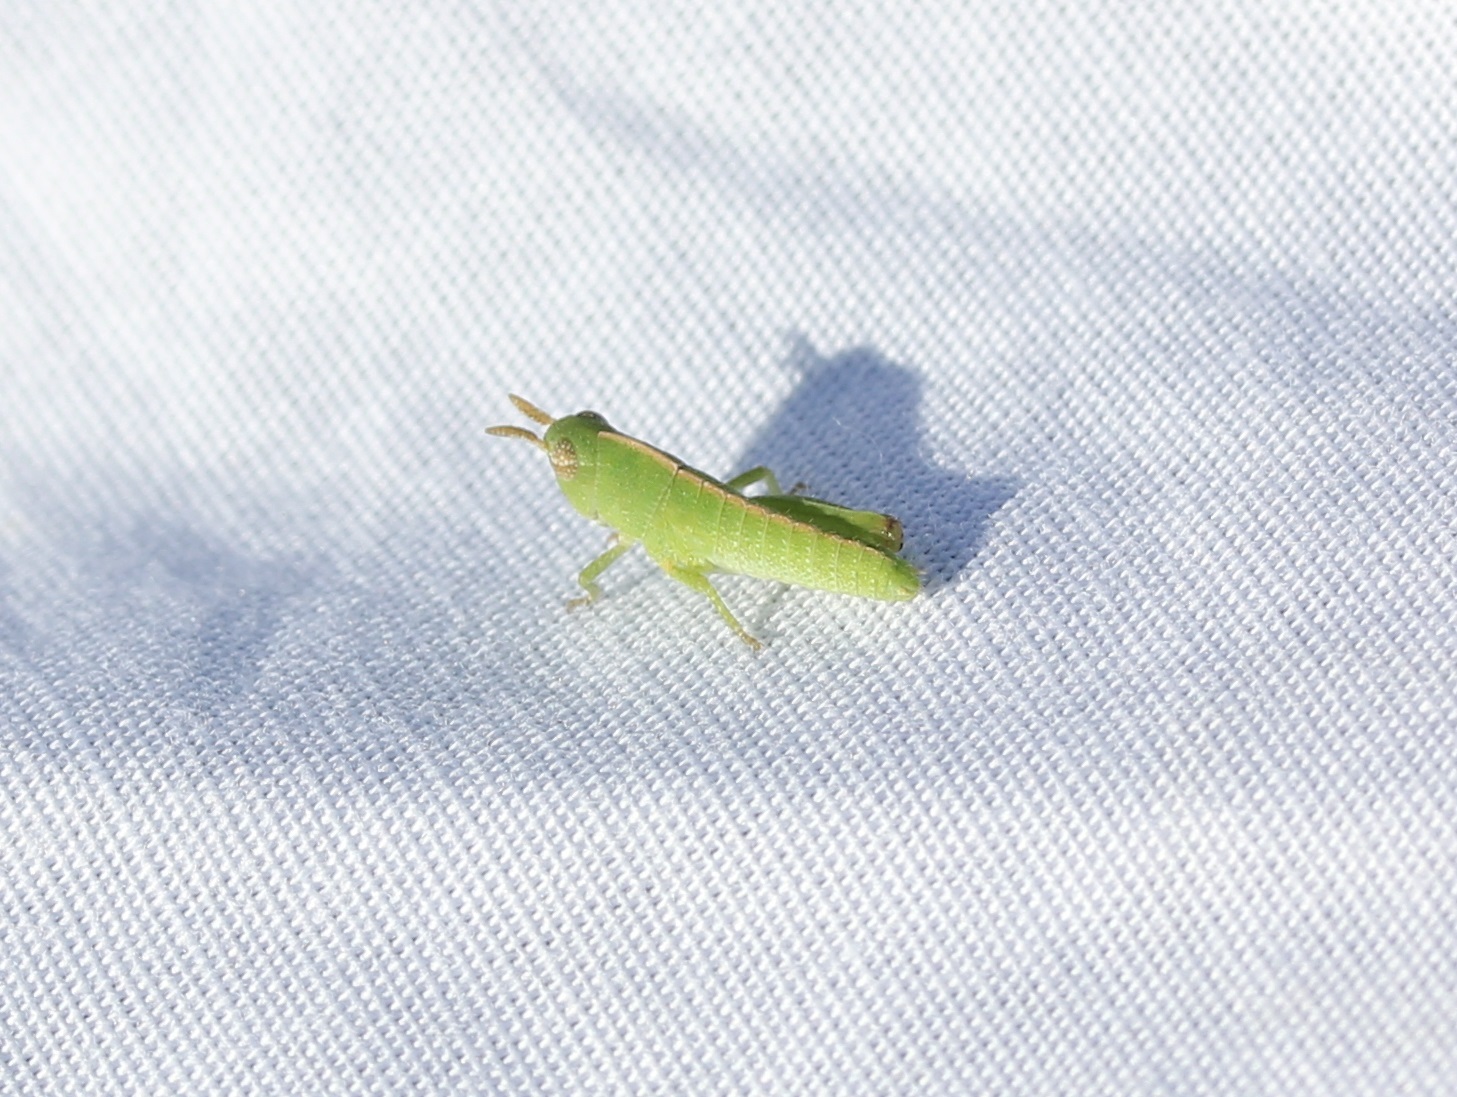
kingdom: Animalia
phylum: Arthropoda
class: Insecta
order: Orthoptera
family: Acrididae
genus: Chortophaga
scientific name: Chortophaga viridifasciata
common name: Green-striped grasshopper
